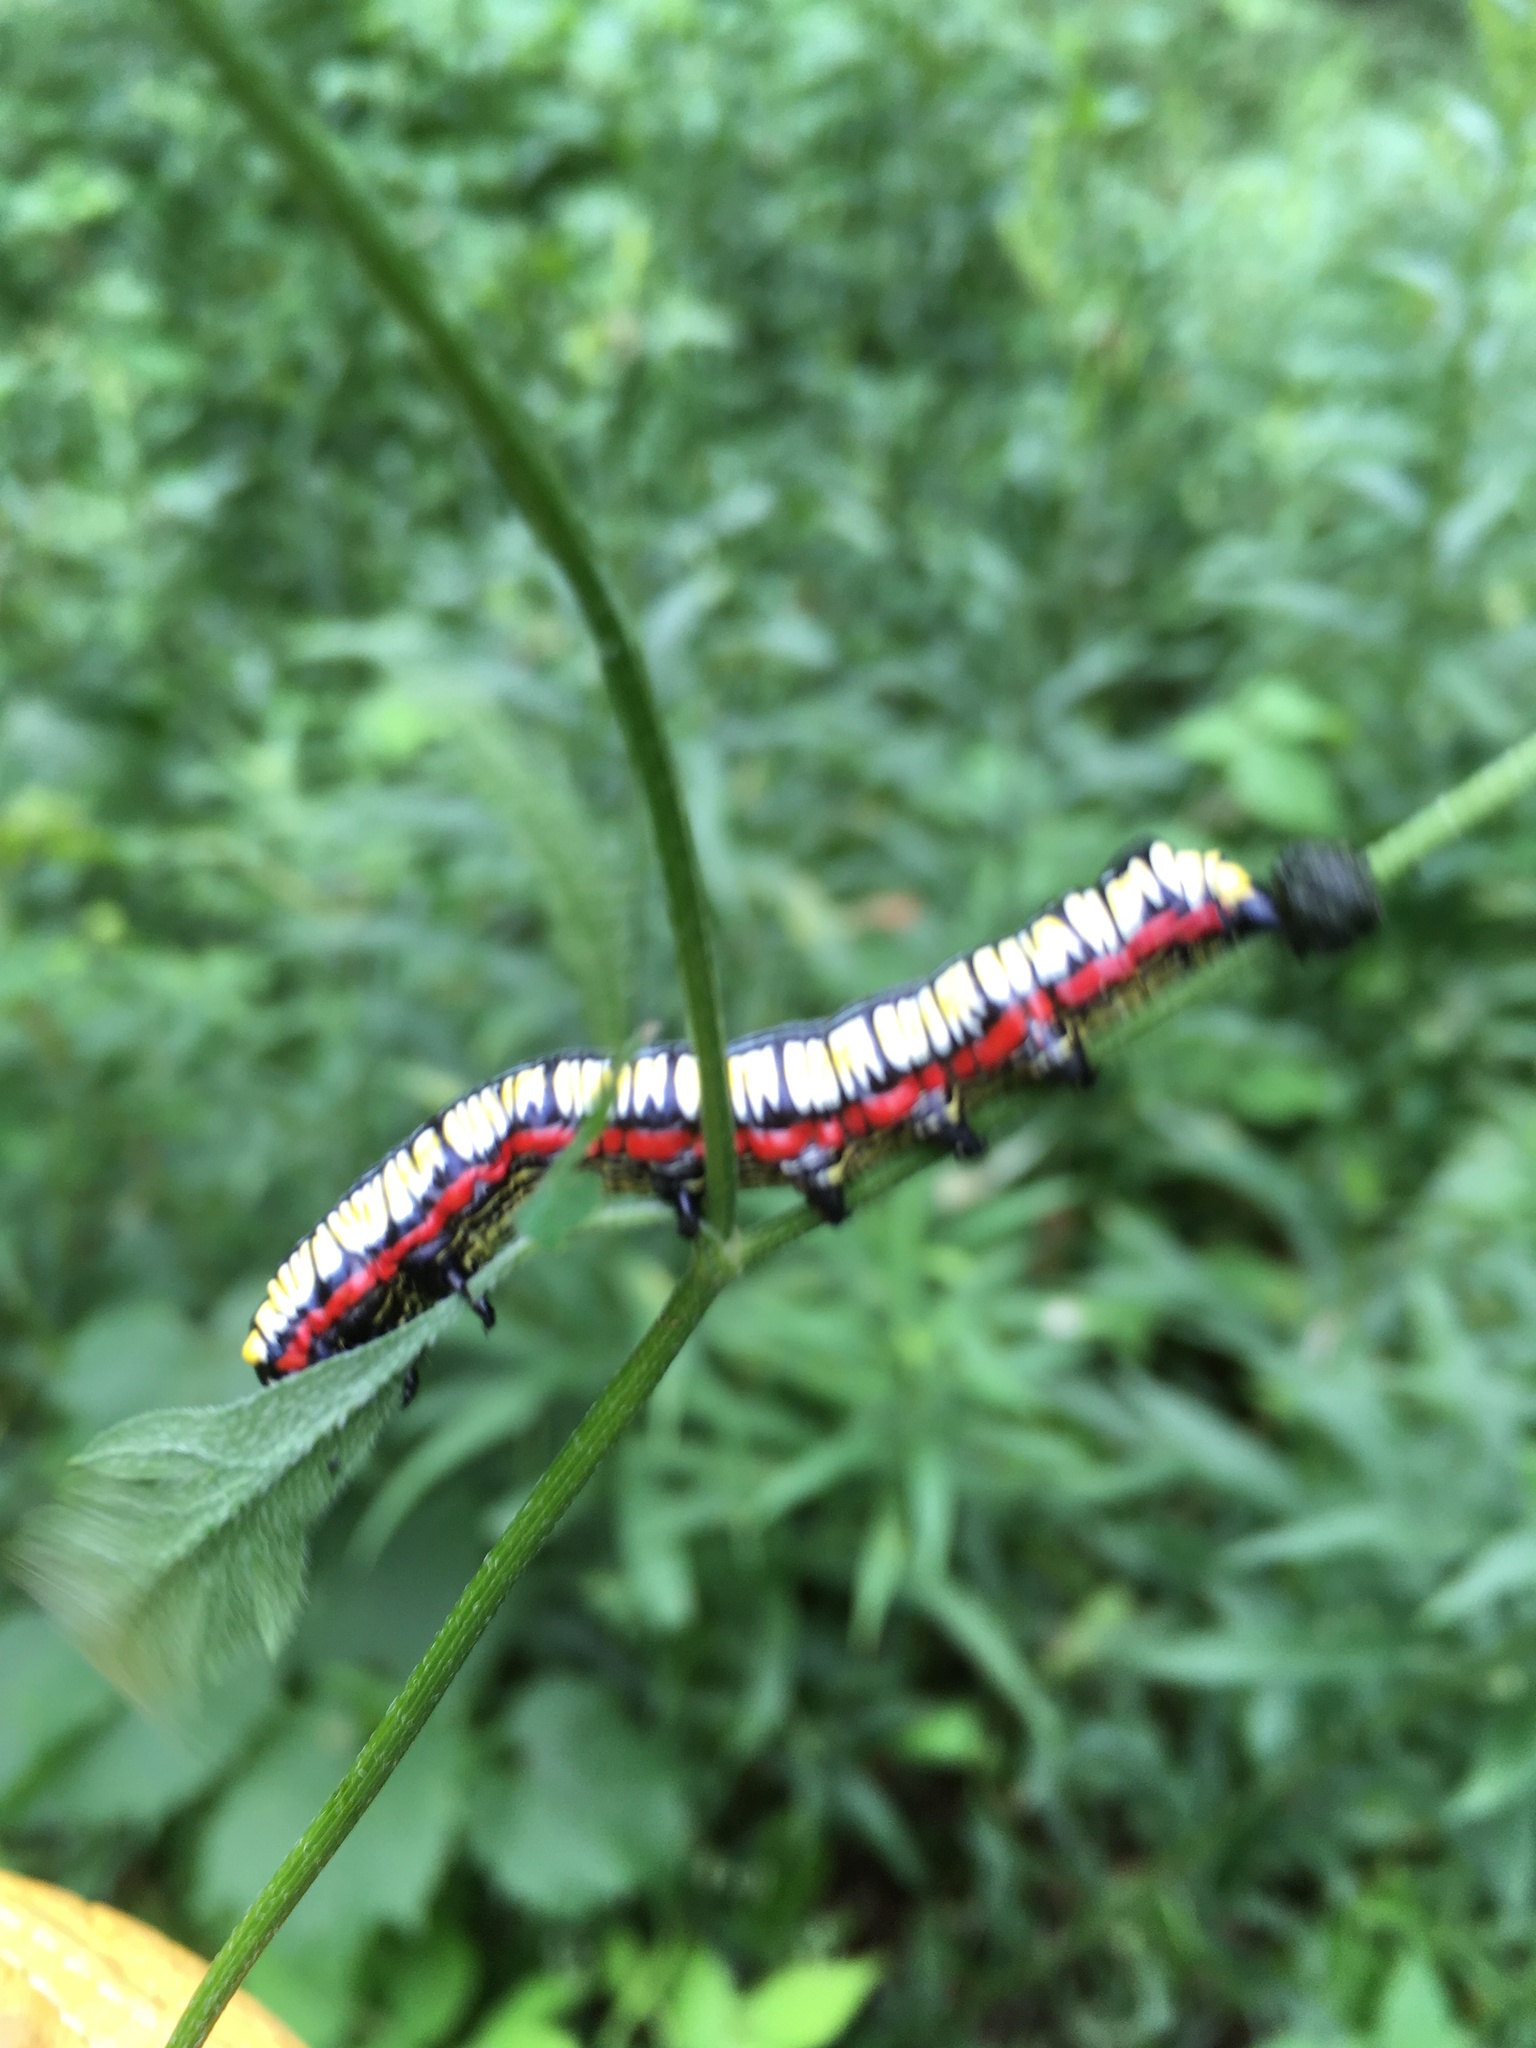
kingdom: Animalia
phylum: Arthropoda
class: Insecta
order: Lepidoptera
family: Noctuidae
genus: Cucullia
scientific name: Cucullia convexipennis
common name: Brown-hooded owlet
